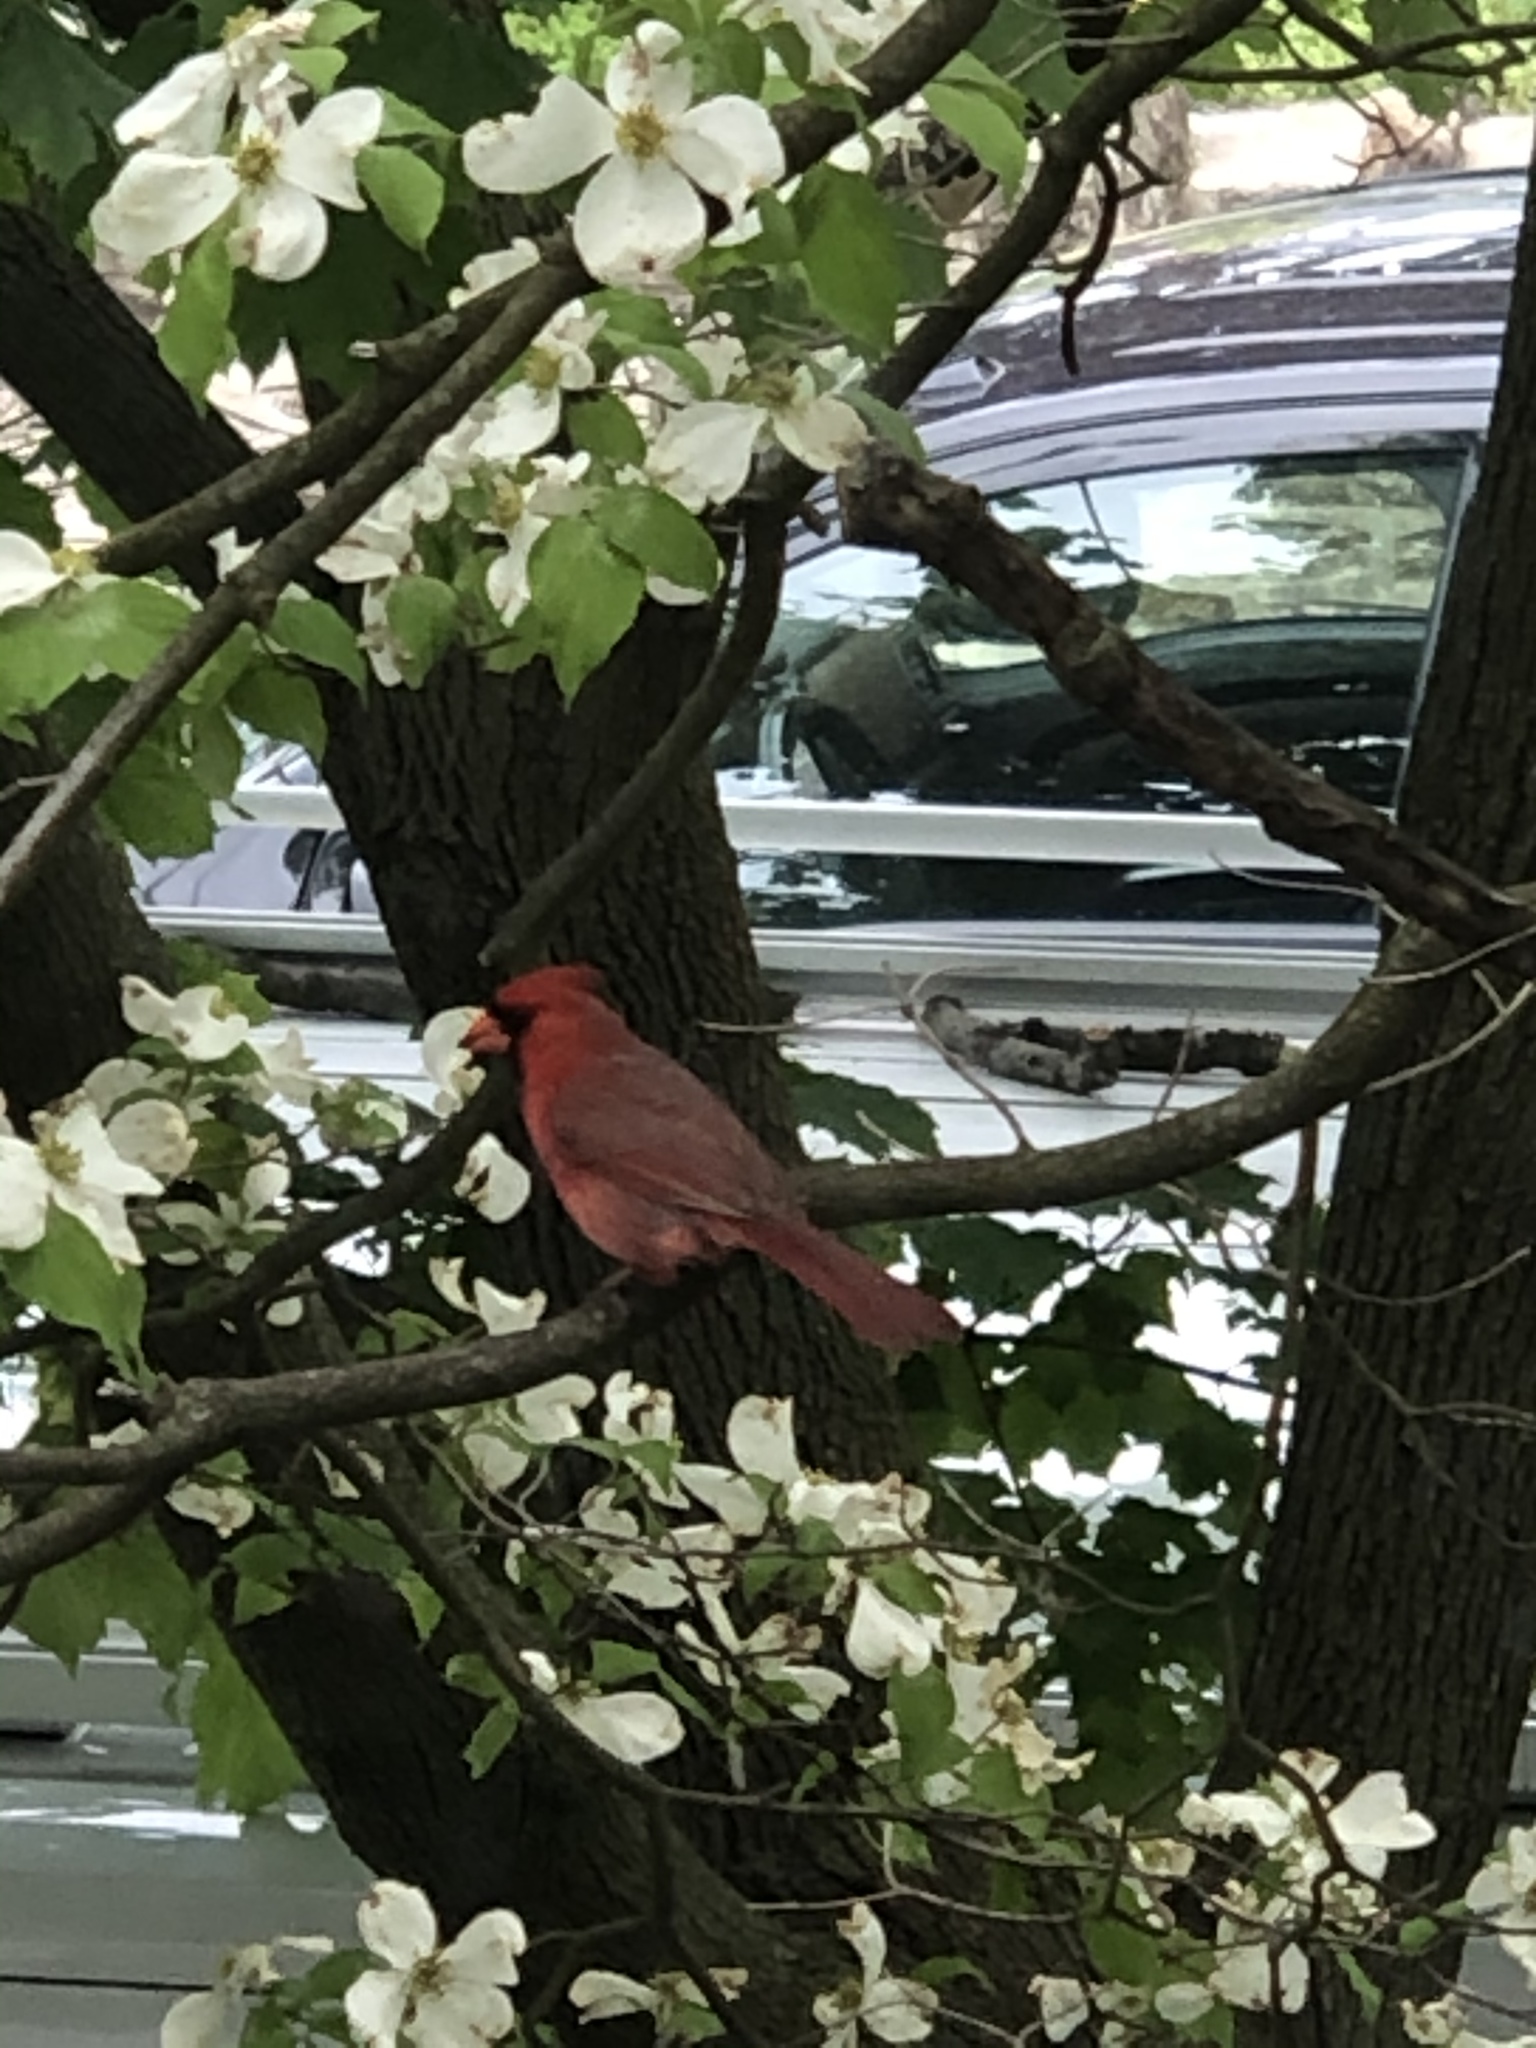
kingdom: Animalia
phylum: Chordata
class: Aves
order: Passeriformes
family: Cardinalidae
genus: Cardinalis
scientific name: Cardinalis cardinalis
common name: Northern cardinal
